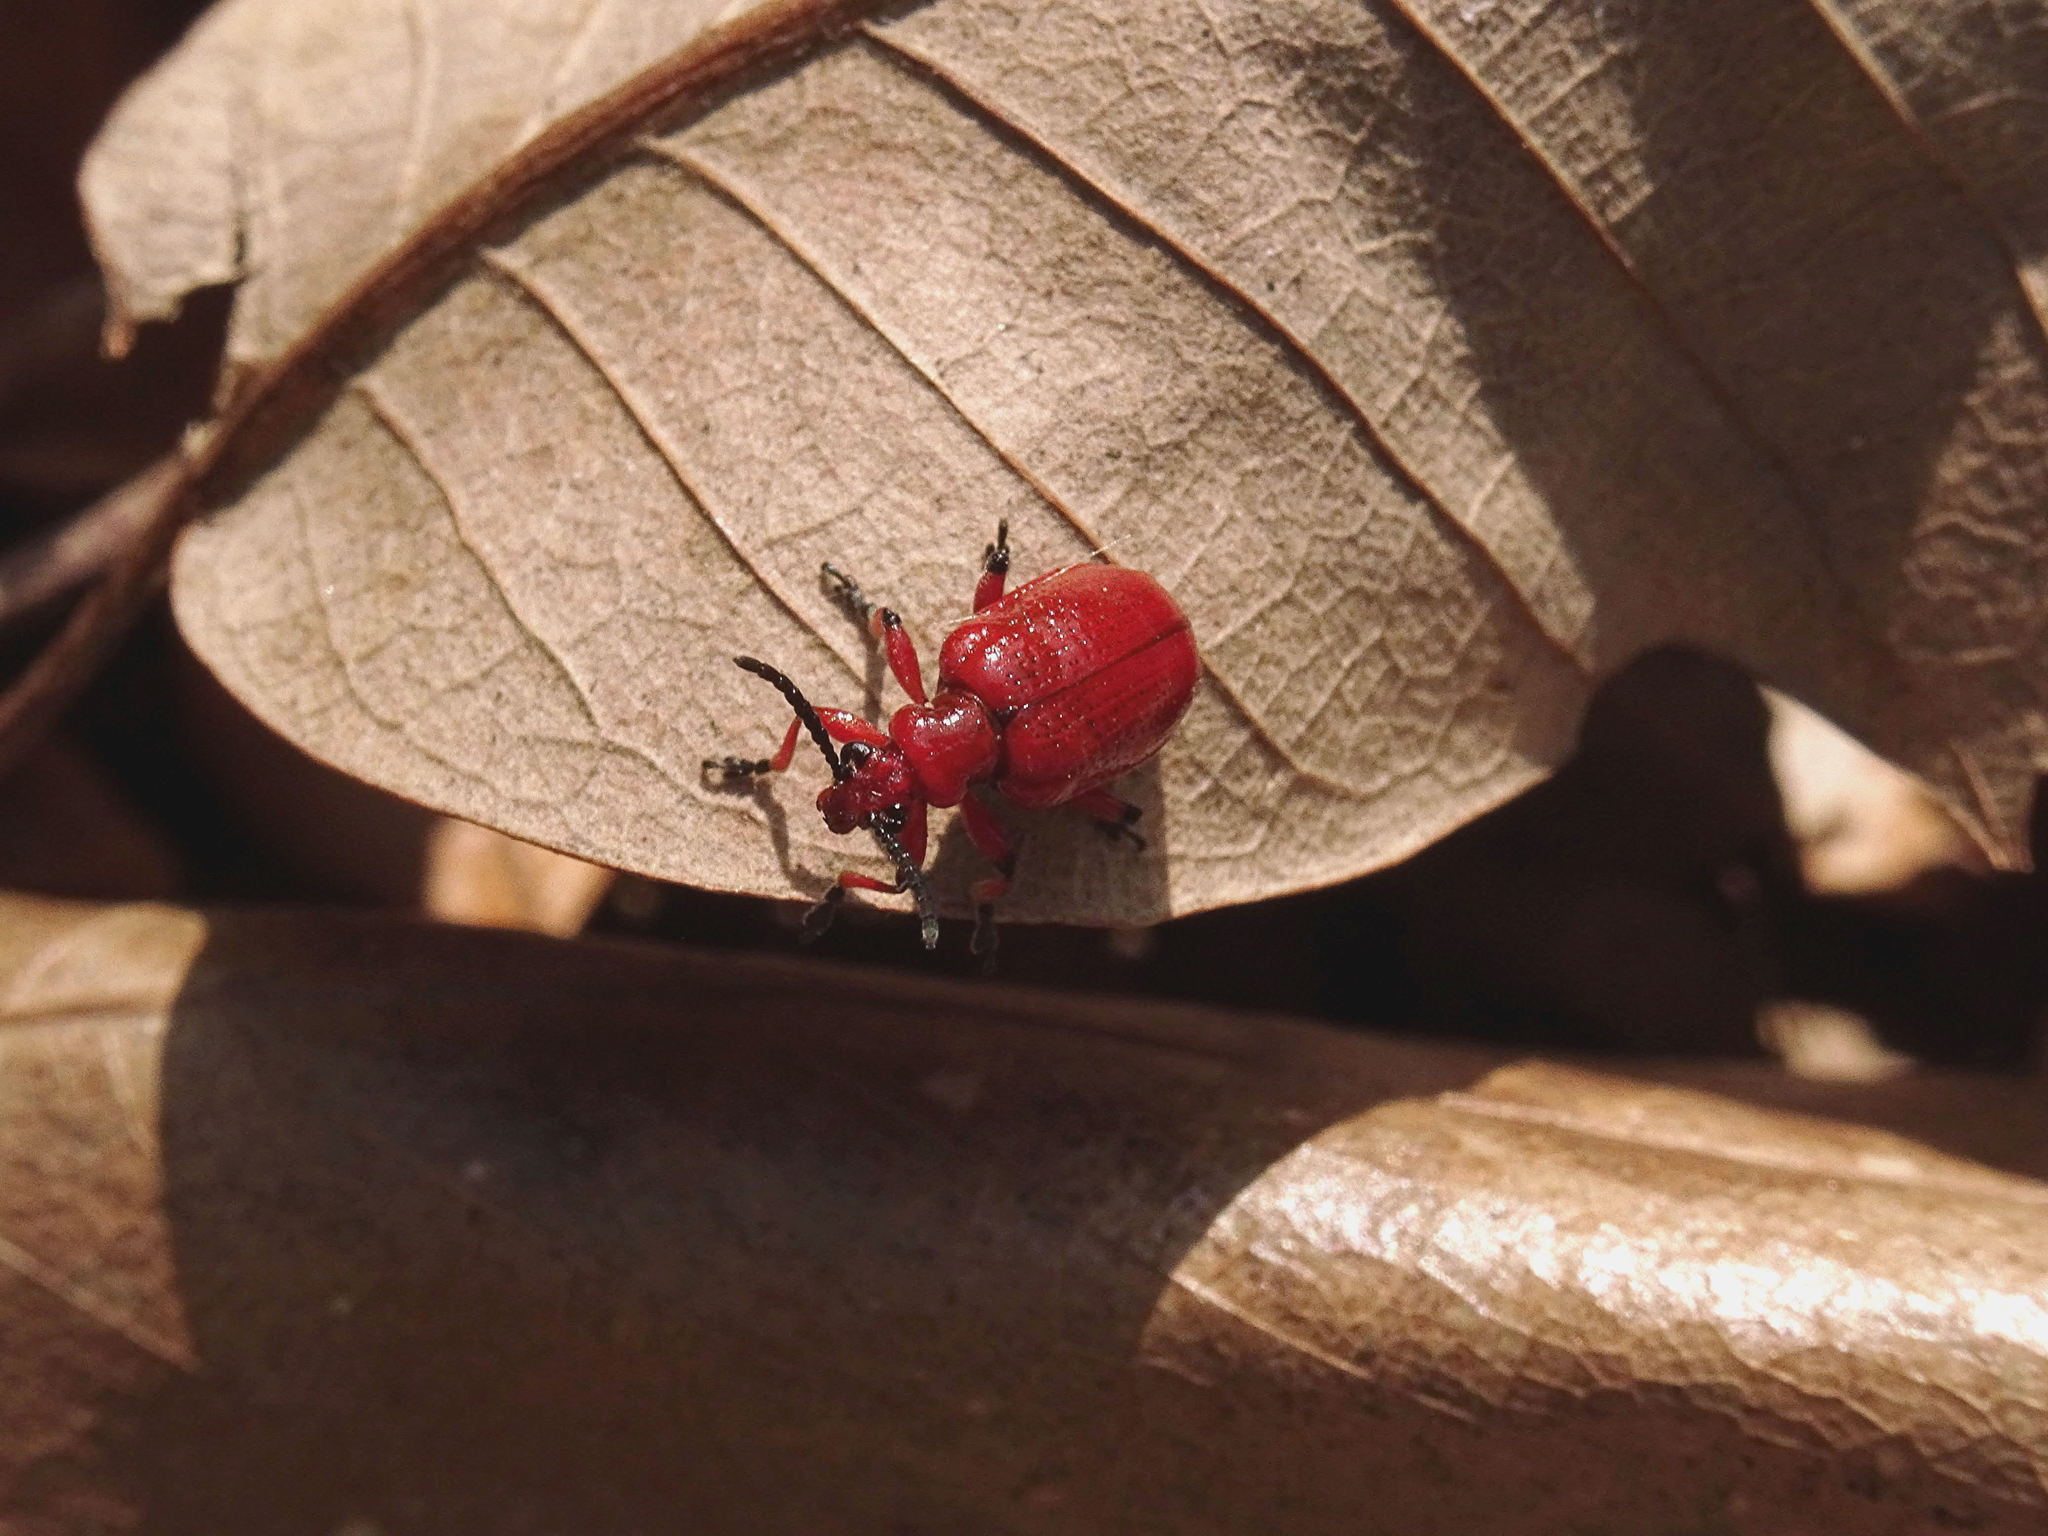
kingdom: Animalia
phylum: Arthropoda
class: Insecta
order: Coleoptera
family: Chrysomelidae
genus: Lilioceris
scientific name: Lilioceris merdigera
